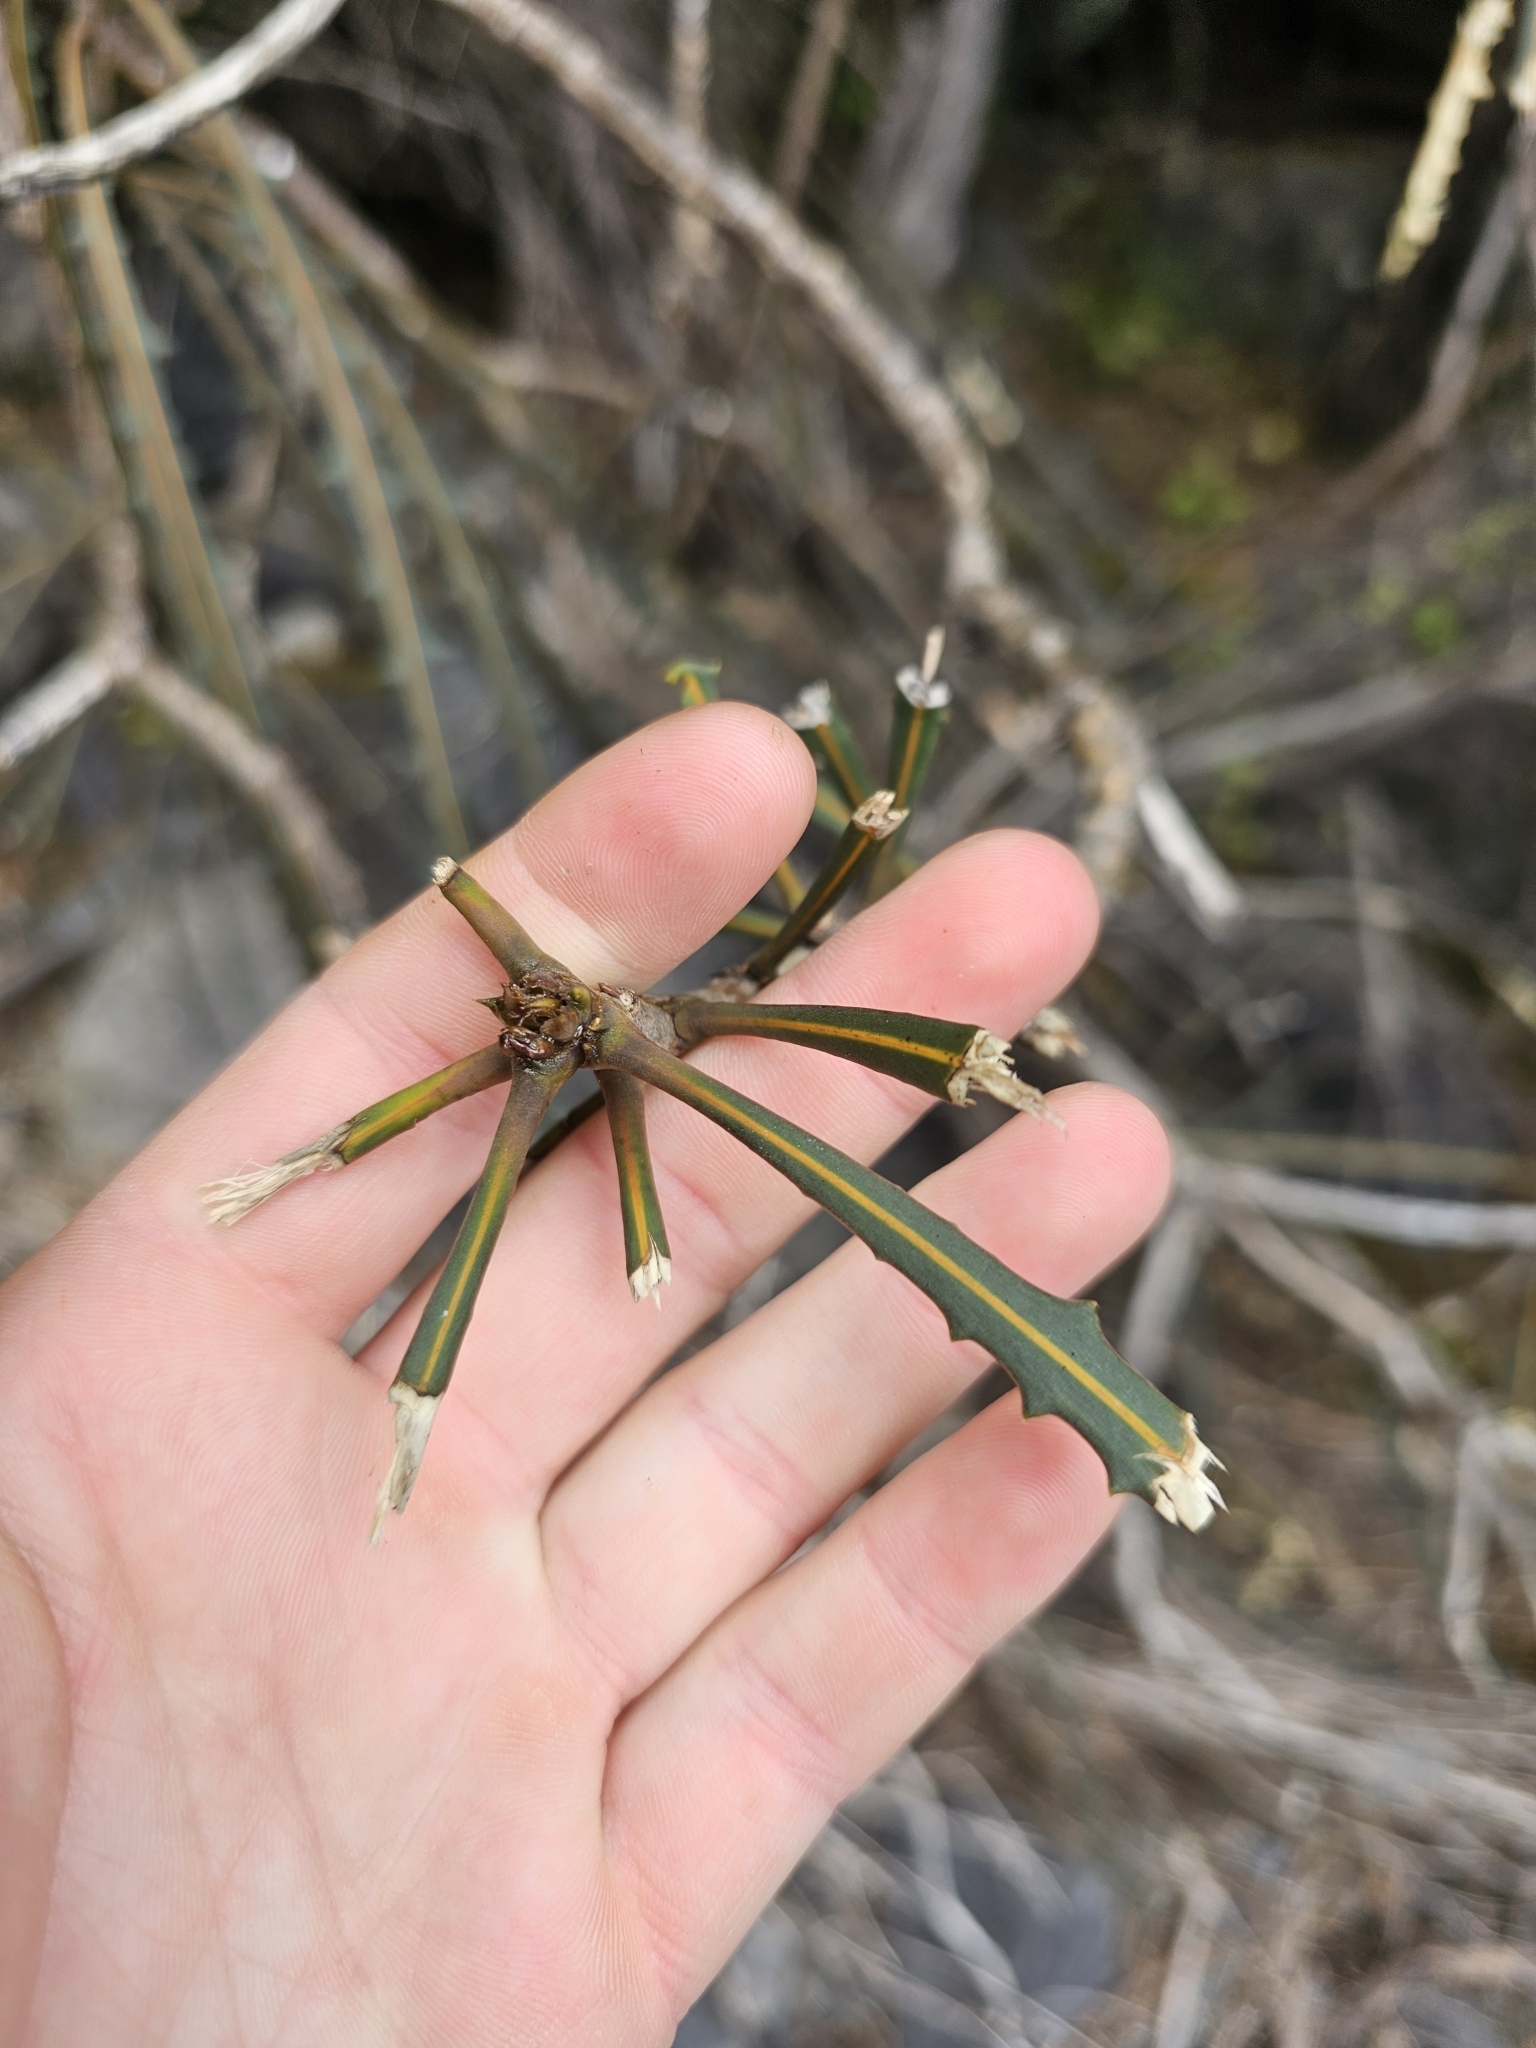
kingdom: Plantae
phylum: Tracheophyta
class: Magnoliopsida
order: Apiales
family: Araliaceae
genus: Pseudopanax
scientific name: Pseudopanax ferox
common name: Fierce lancewood
